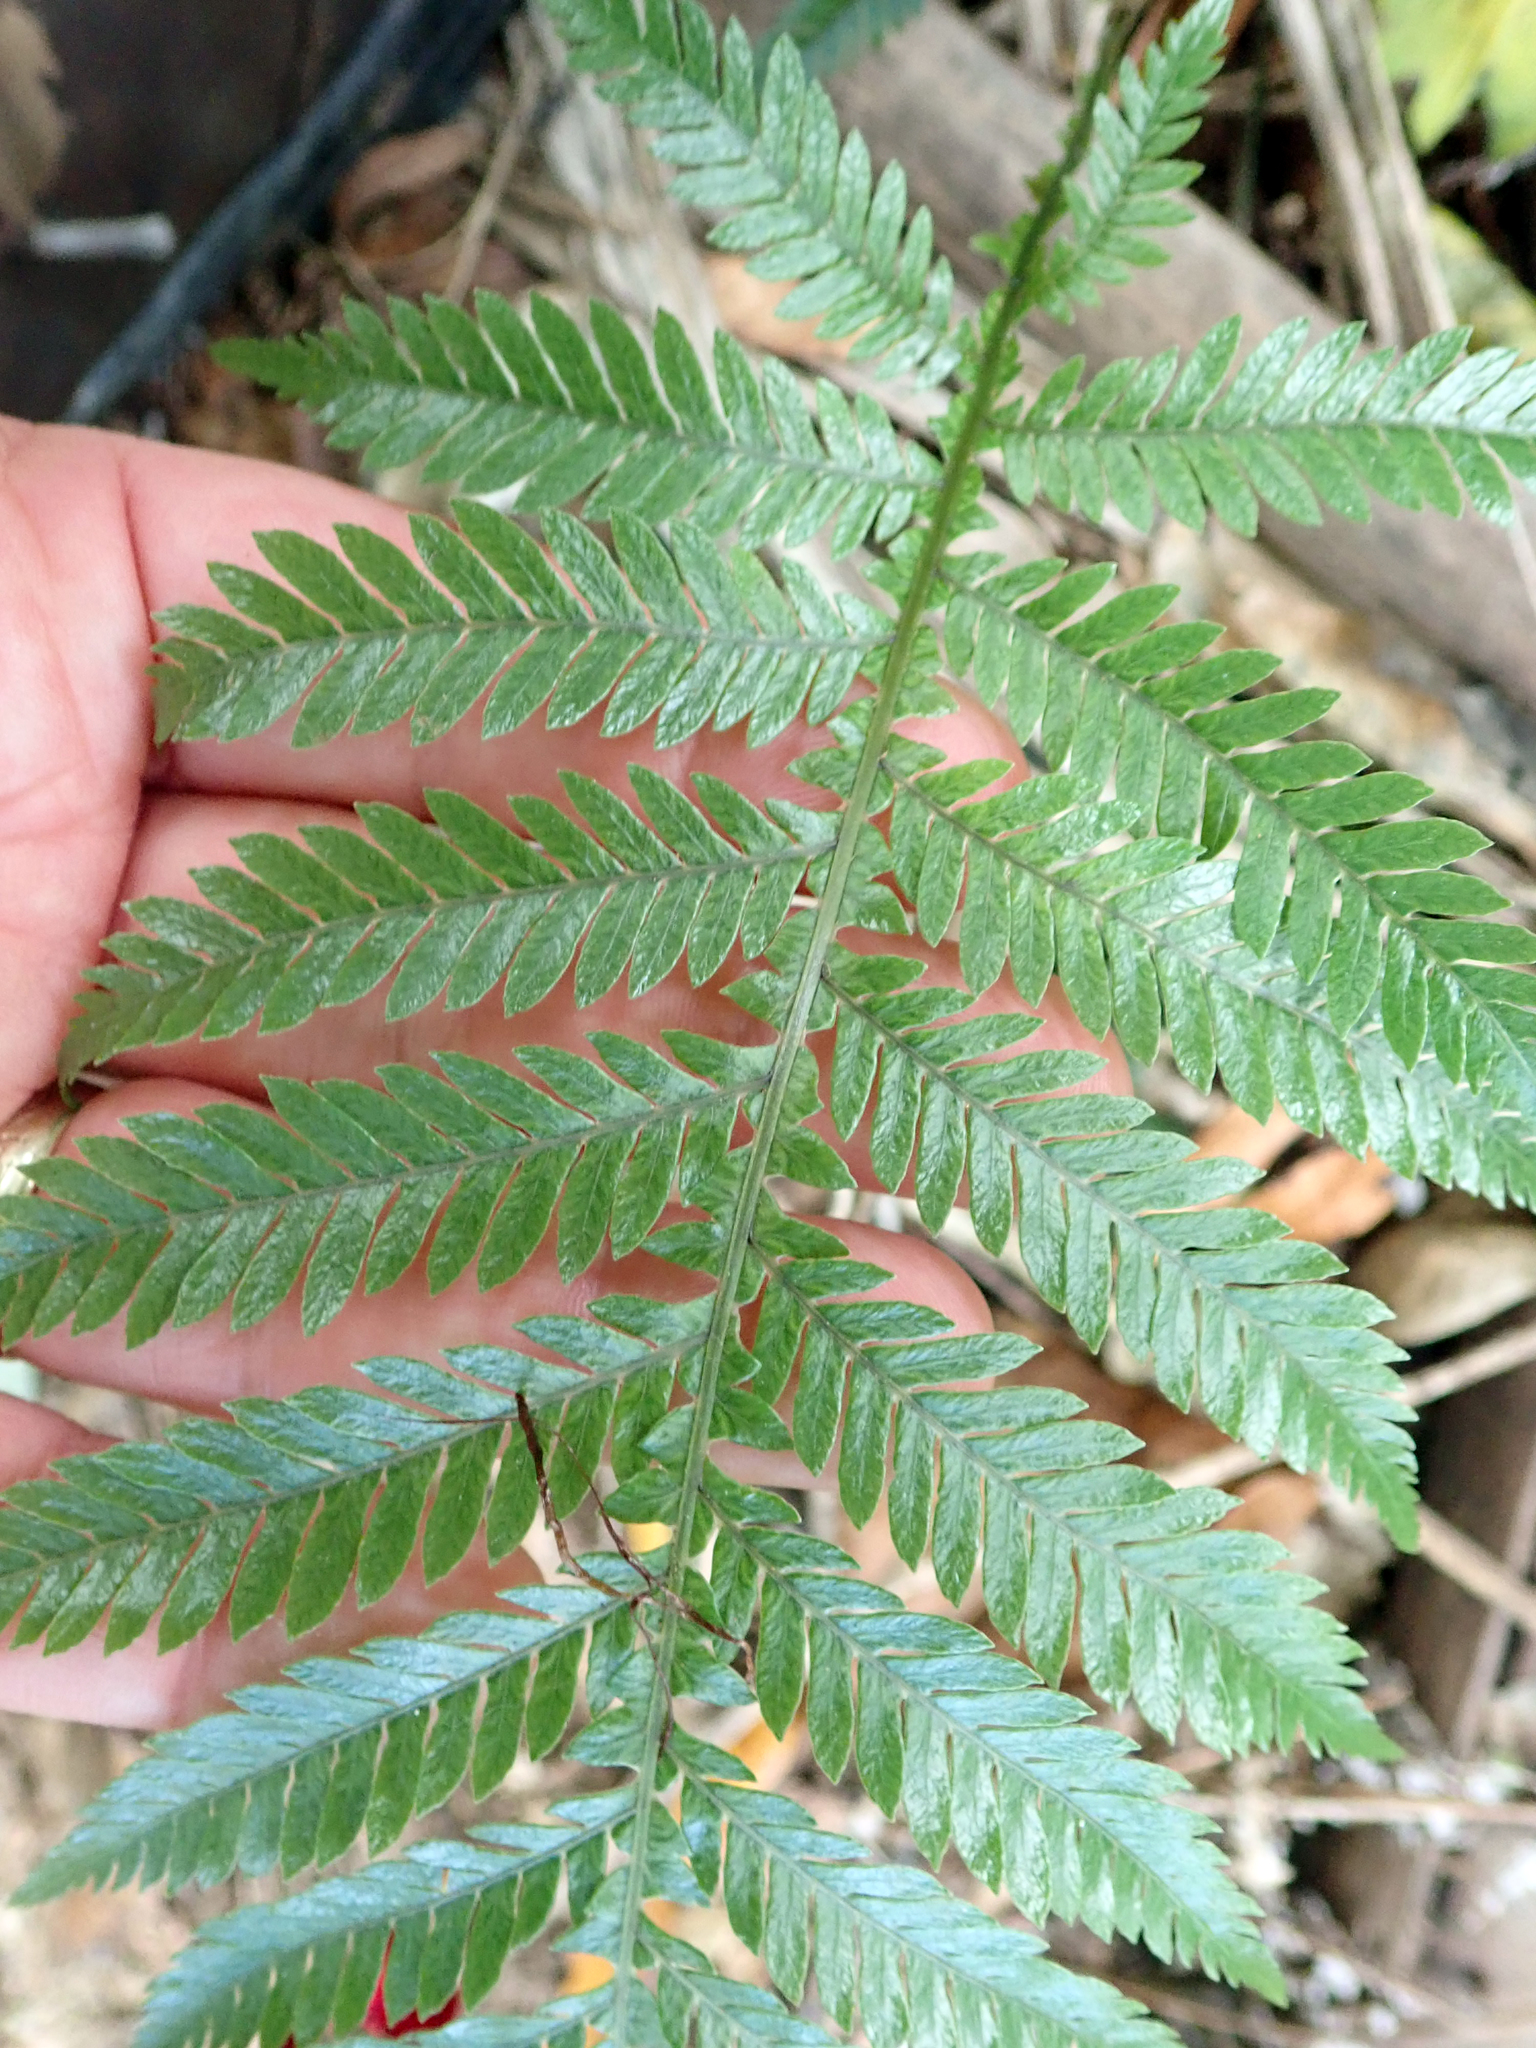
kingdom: Plantae
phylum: Tracheophyta
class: Polypodiopsida
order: Polypodiales
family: Blechnaceae
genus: Diploblechnum
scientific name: Diploblechnum fraseri
